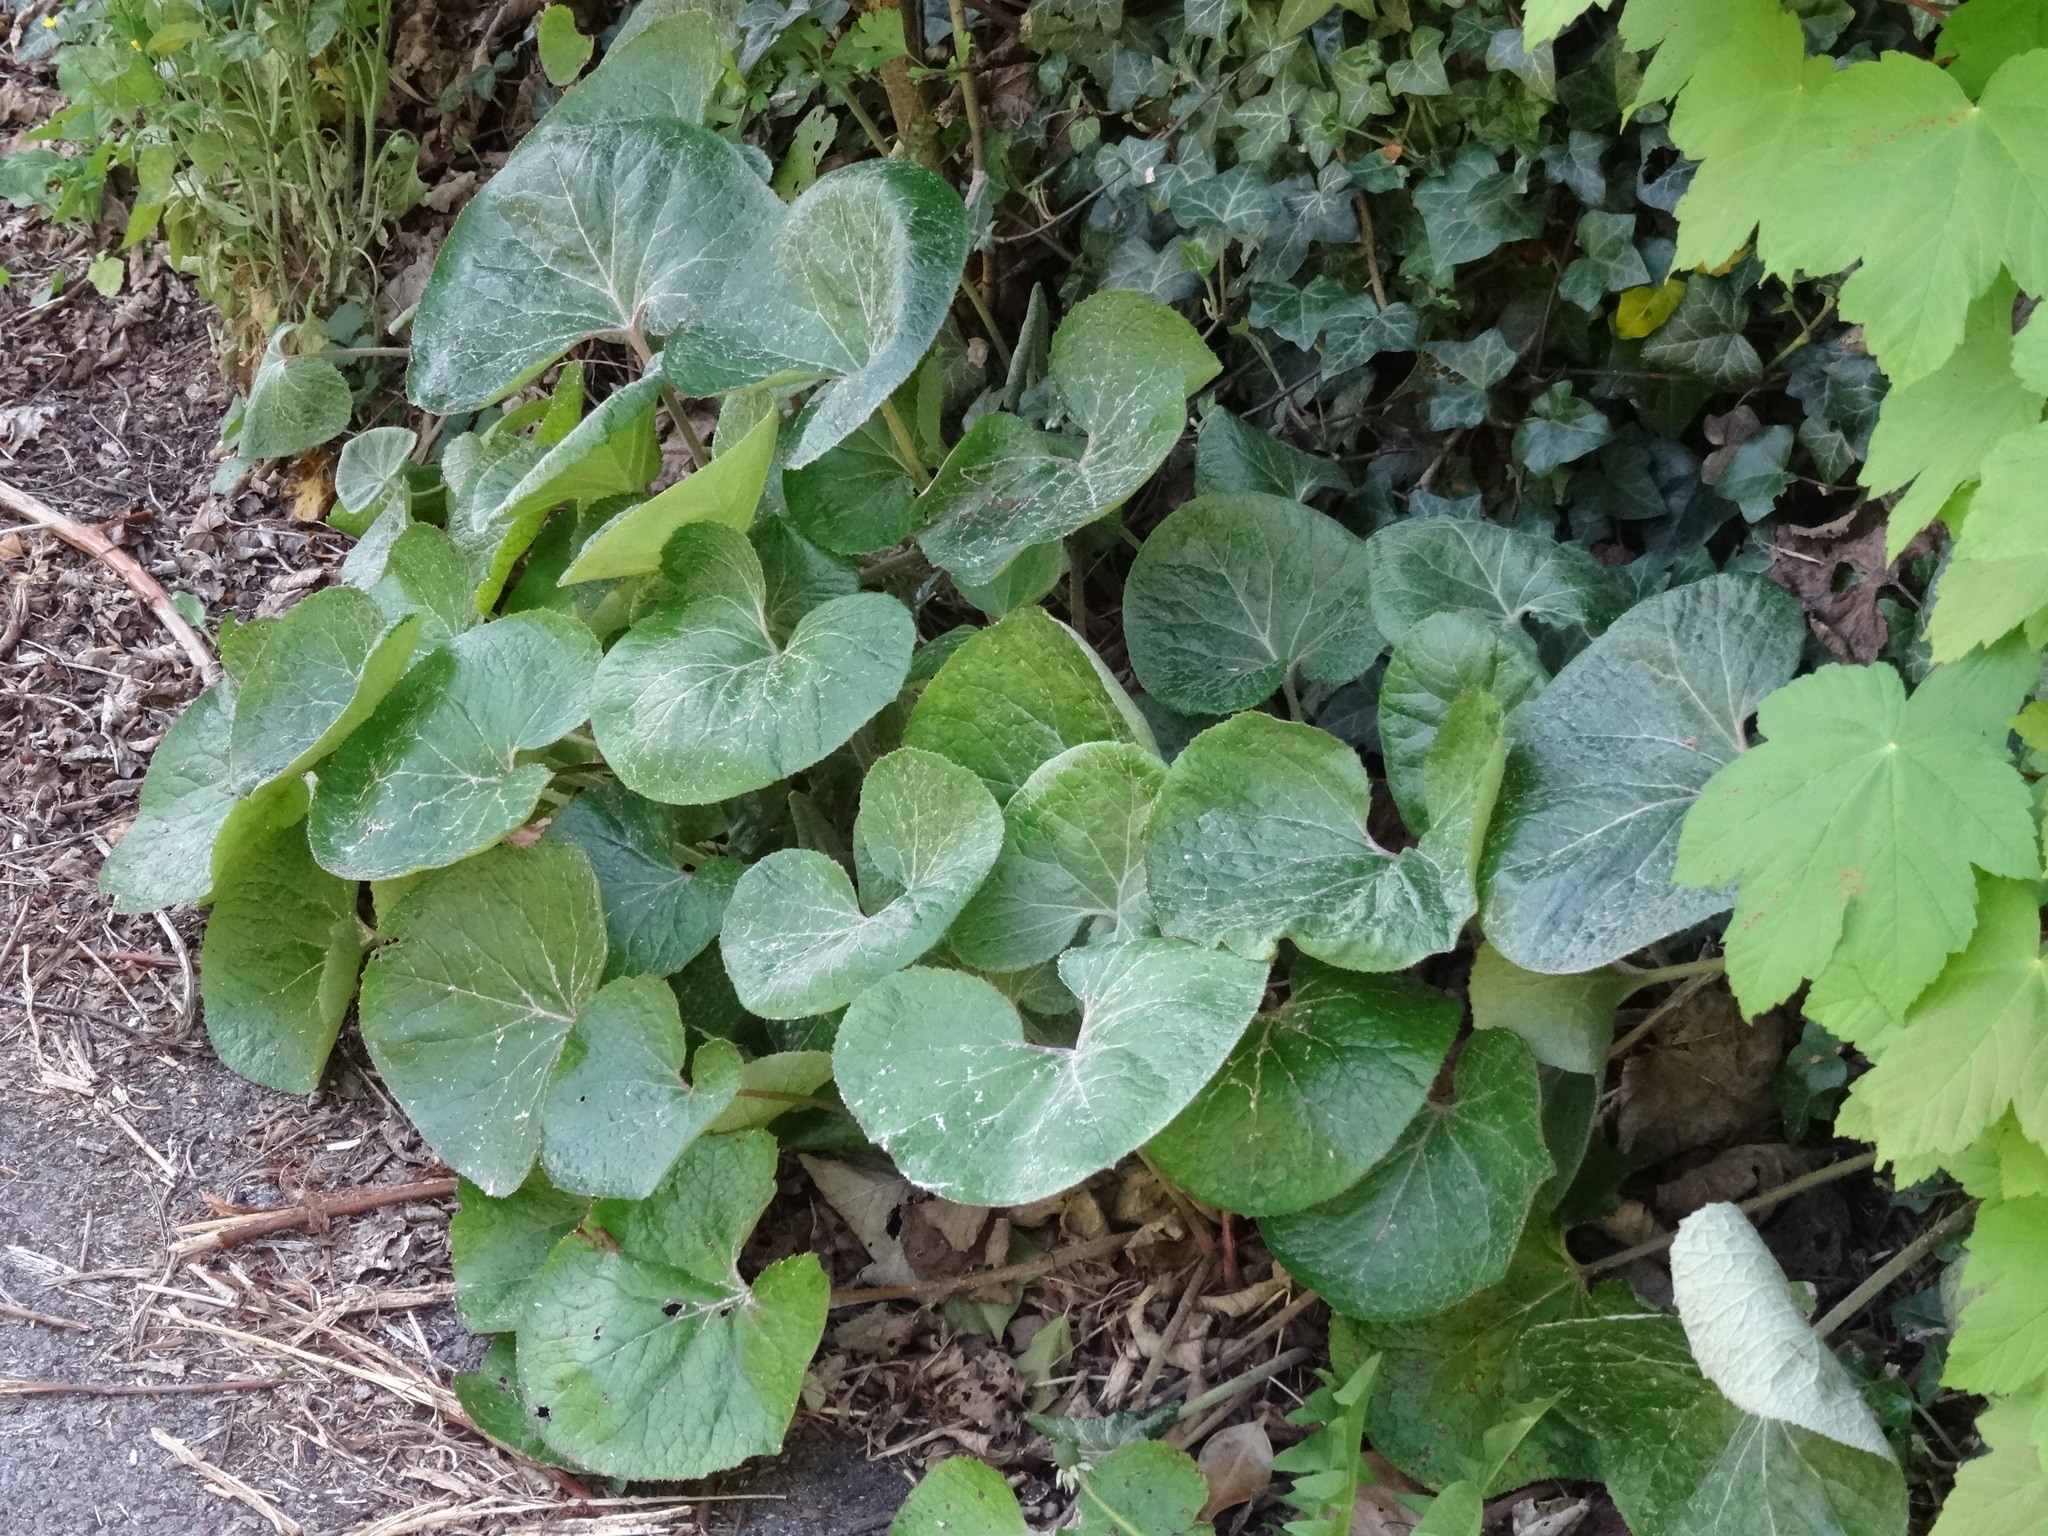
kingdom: Plantae
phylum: Tracheophyta
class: Magnoliopsida
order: Asterales
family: Asteraceae
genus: Petasites
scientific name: Petasites pyrenaicus
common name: Winter heliotrope
